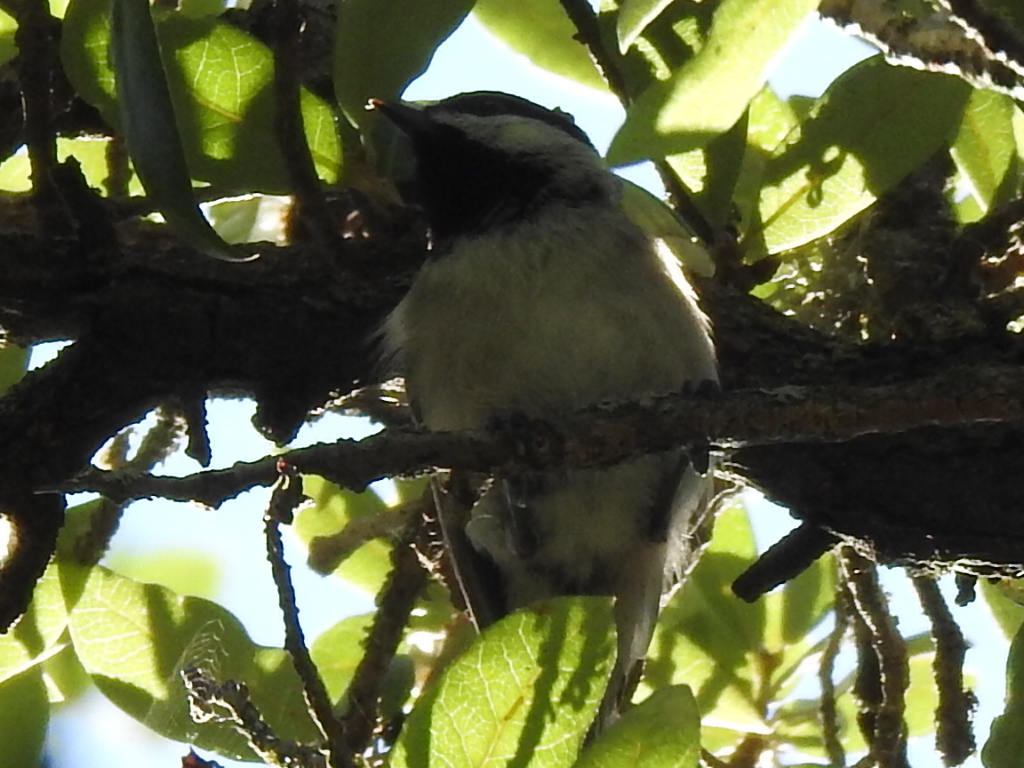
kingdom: Animalia
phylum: Chordata
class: Aves
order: Passeriformes
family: Paridae
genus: Poecile
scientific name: Poecile carolinensis
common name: Carolina chickadee
